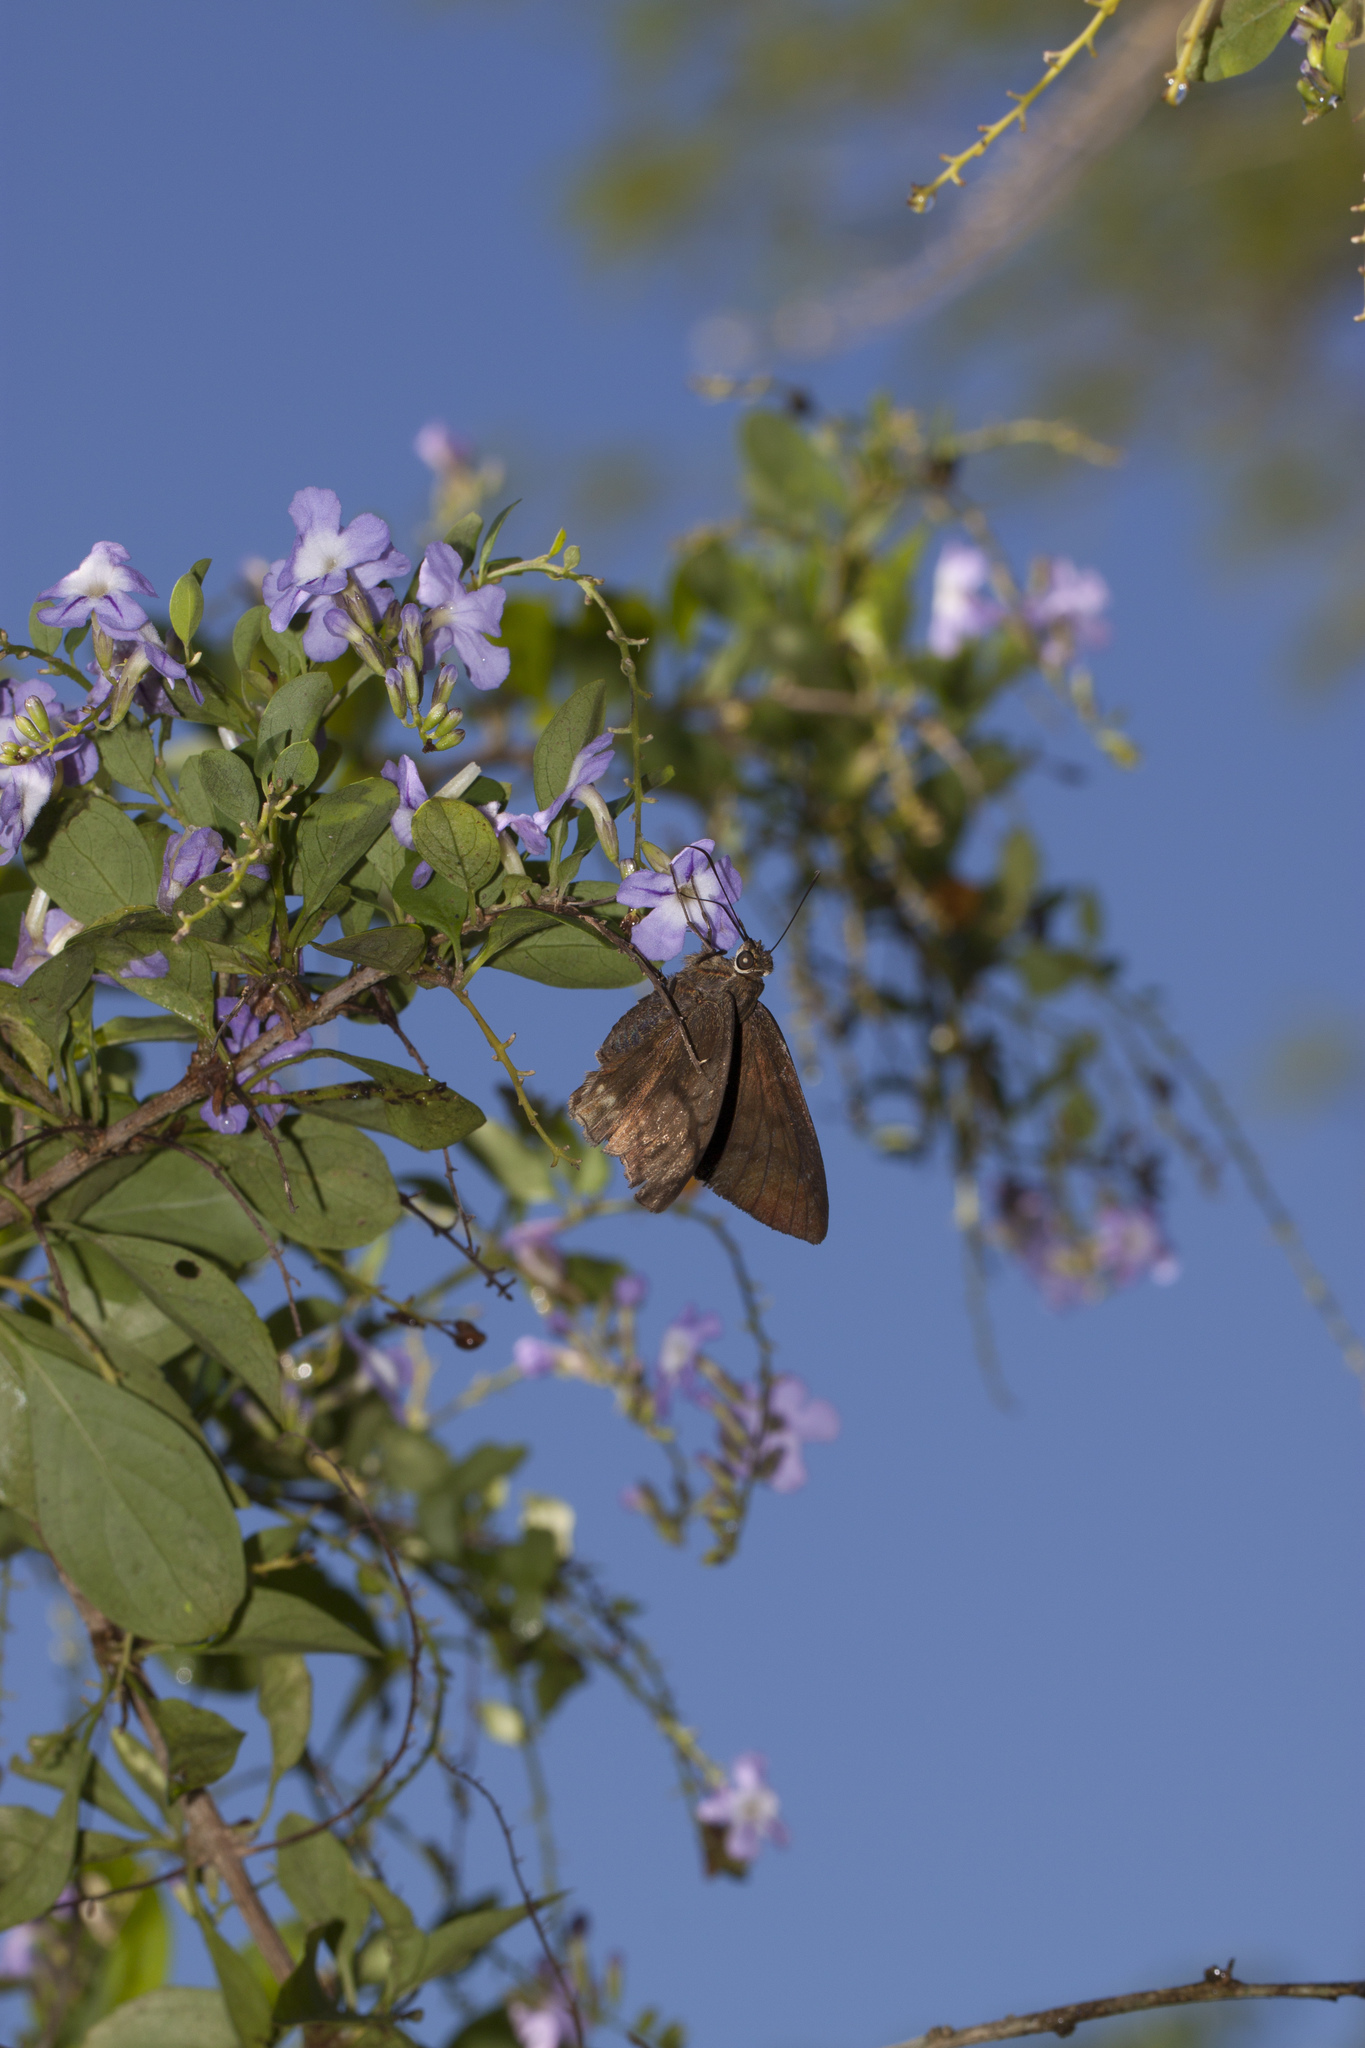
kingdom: Animalia
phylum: Arthropoda
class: Insecta
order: Lepidoptera
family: Hesperiidae
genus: Nyctelius
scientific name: Nyctelius nyctelius
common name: Violet-banded skipper
